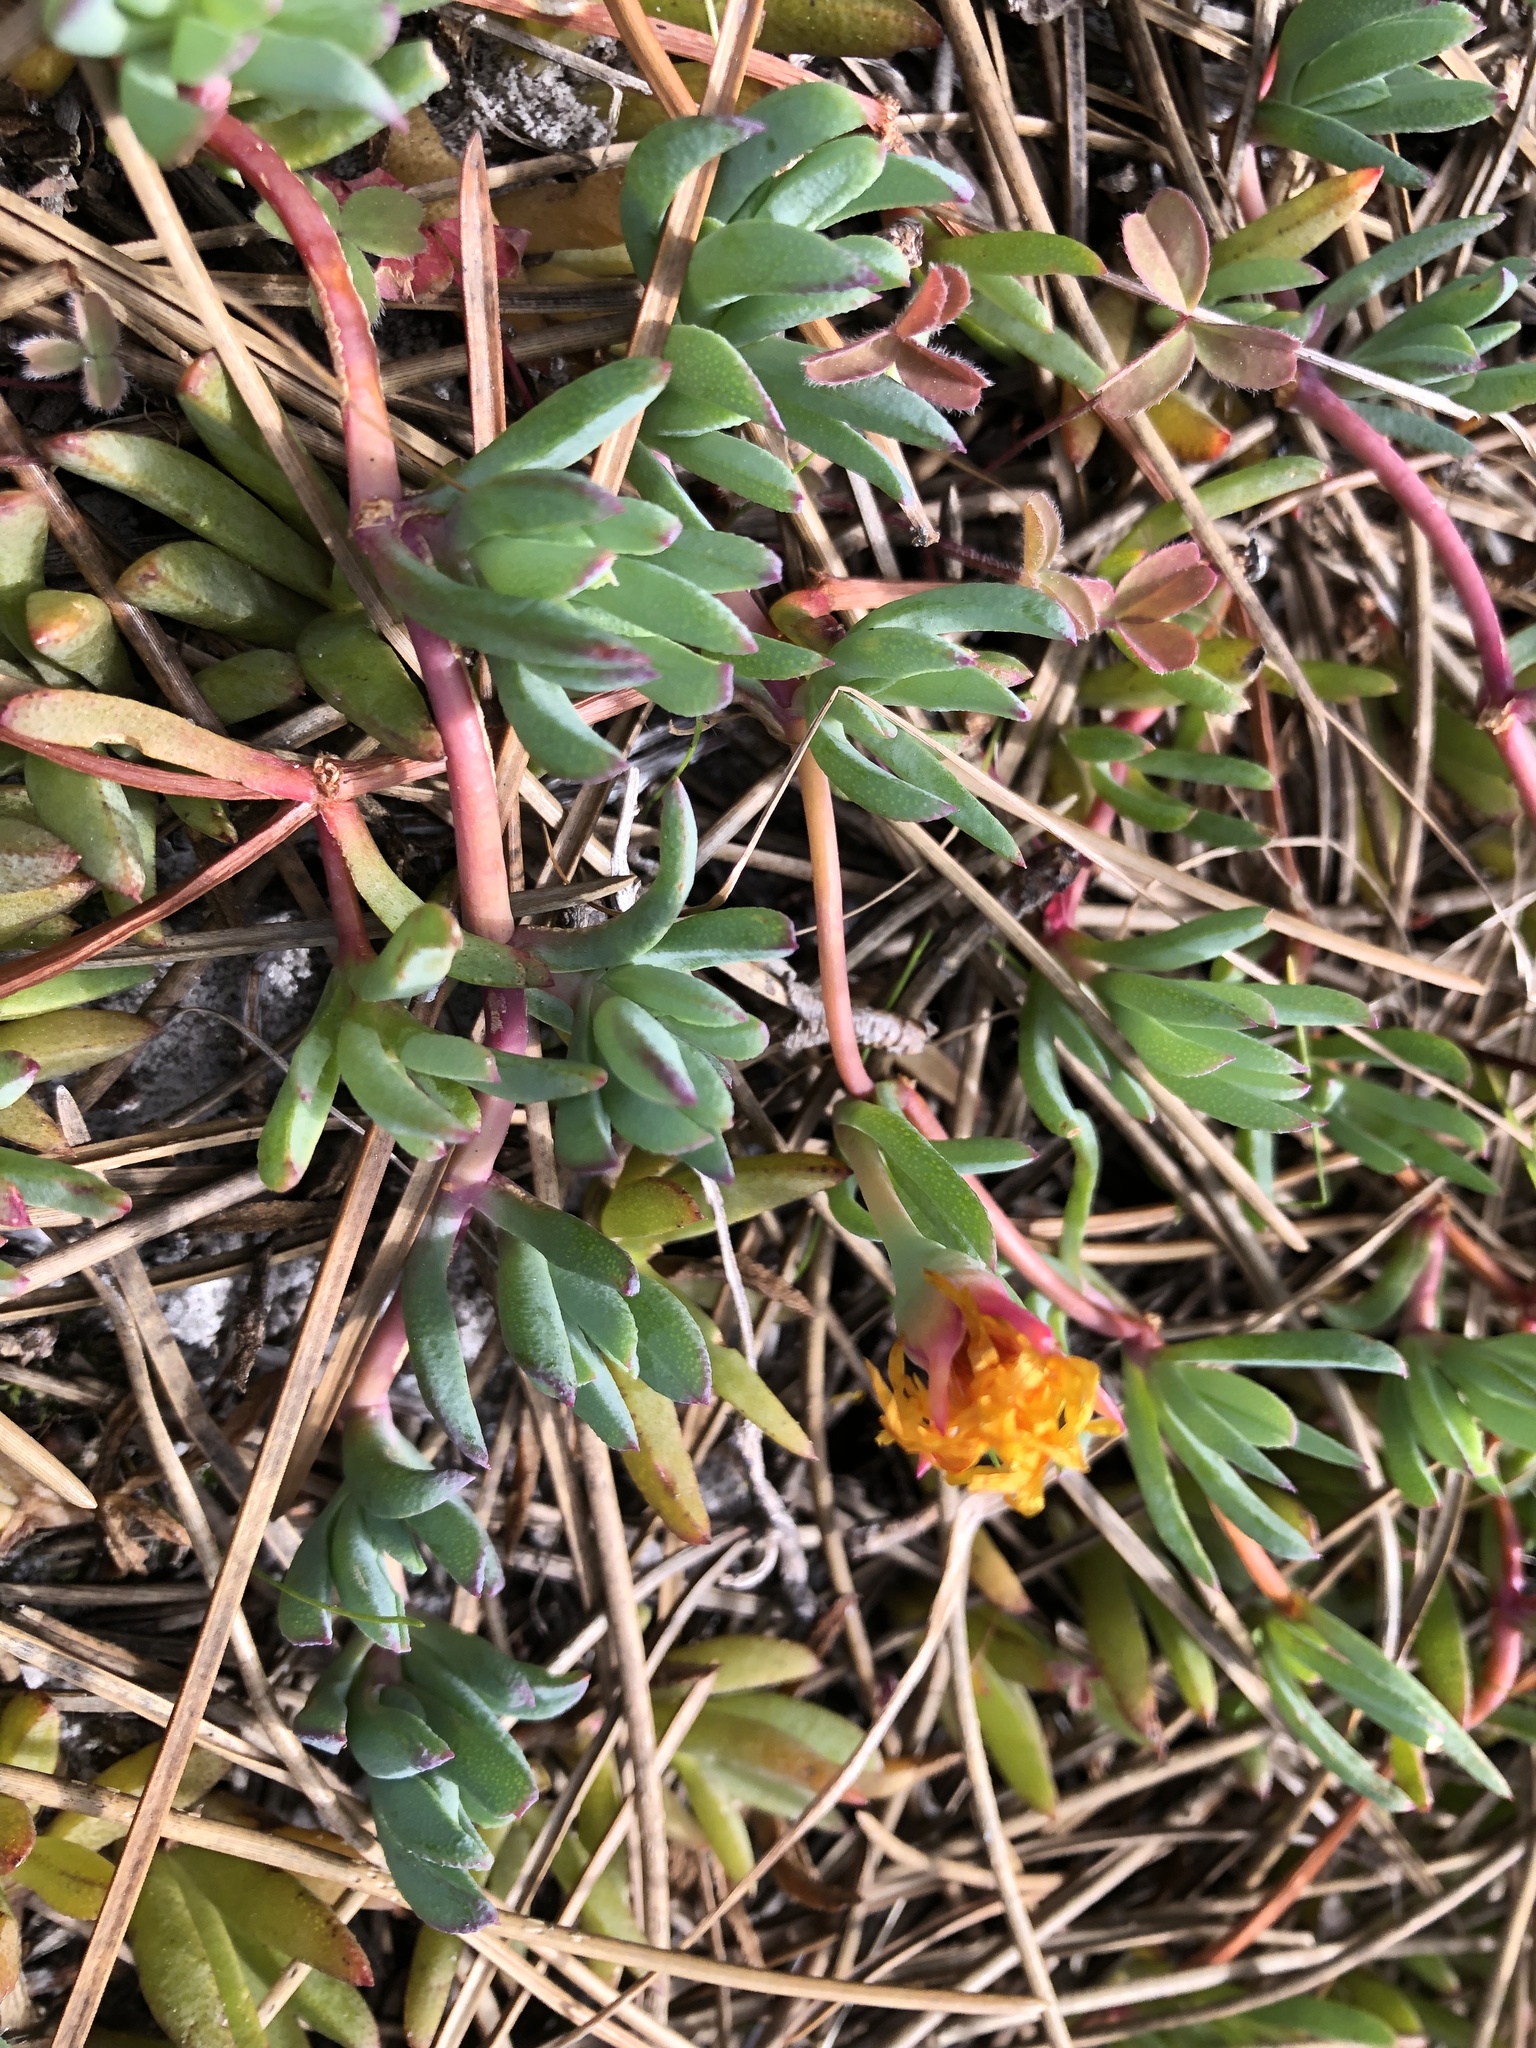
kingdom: Plantae
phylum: Tracheophyta
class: Magnoliopsida
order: Caryophyllales
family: Aizoaceae
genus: Lampranthus
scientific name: Lampranthus reptans
